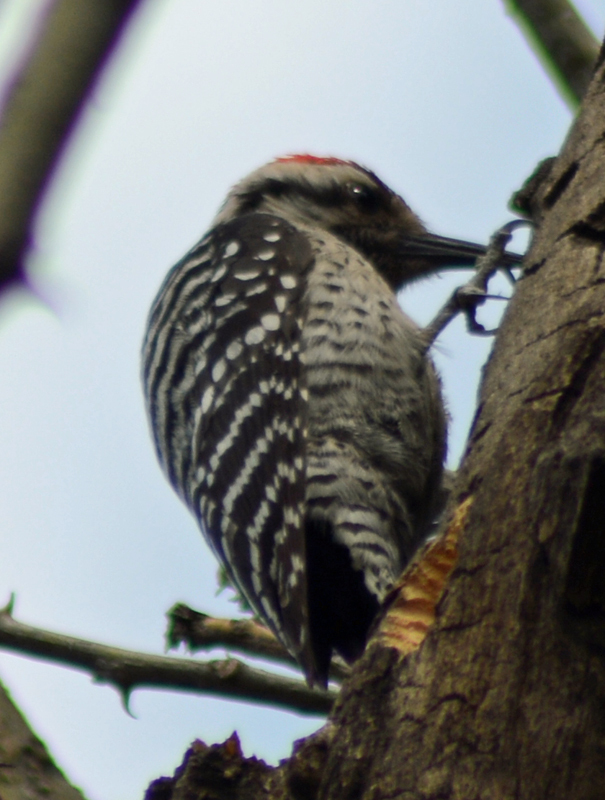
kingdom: Animalia
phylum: Chordata
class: Aves
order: Piciformes
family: Picidae
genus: Dryobates
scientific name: Dryobates scalaris
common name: Ladder-backed woodpecker
